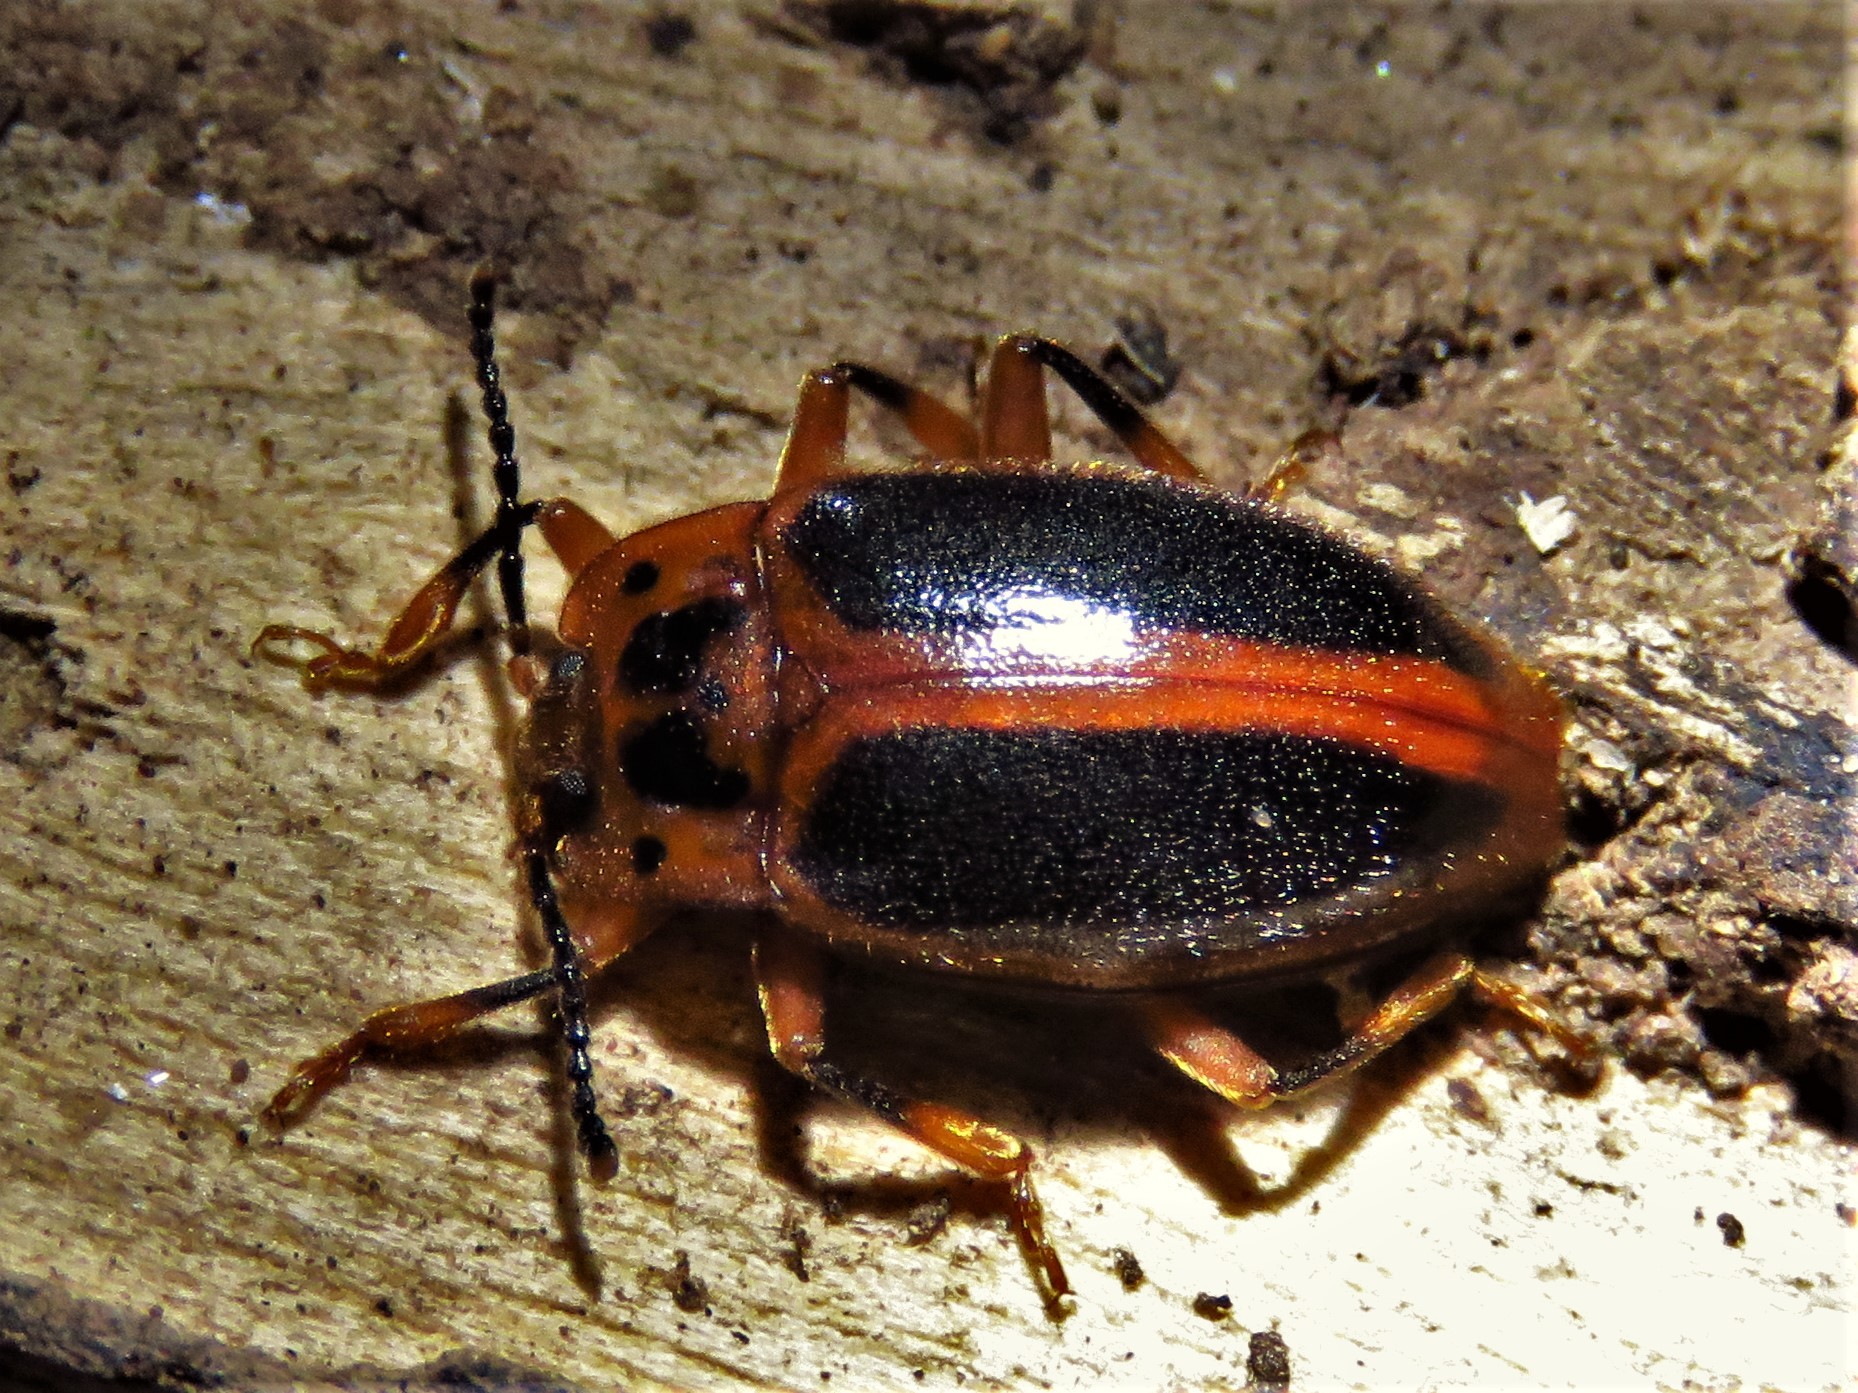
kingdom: Animalia
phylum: Arthropoda
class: Insecta
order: Coleoptera
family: Endomychidae
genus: Epipocus
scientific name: Epipocus cinctus
